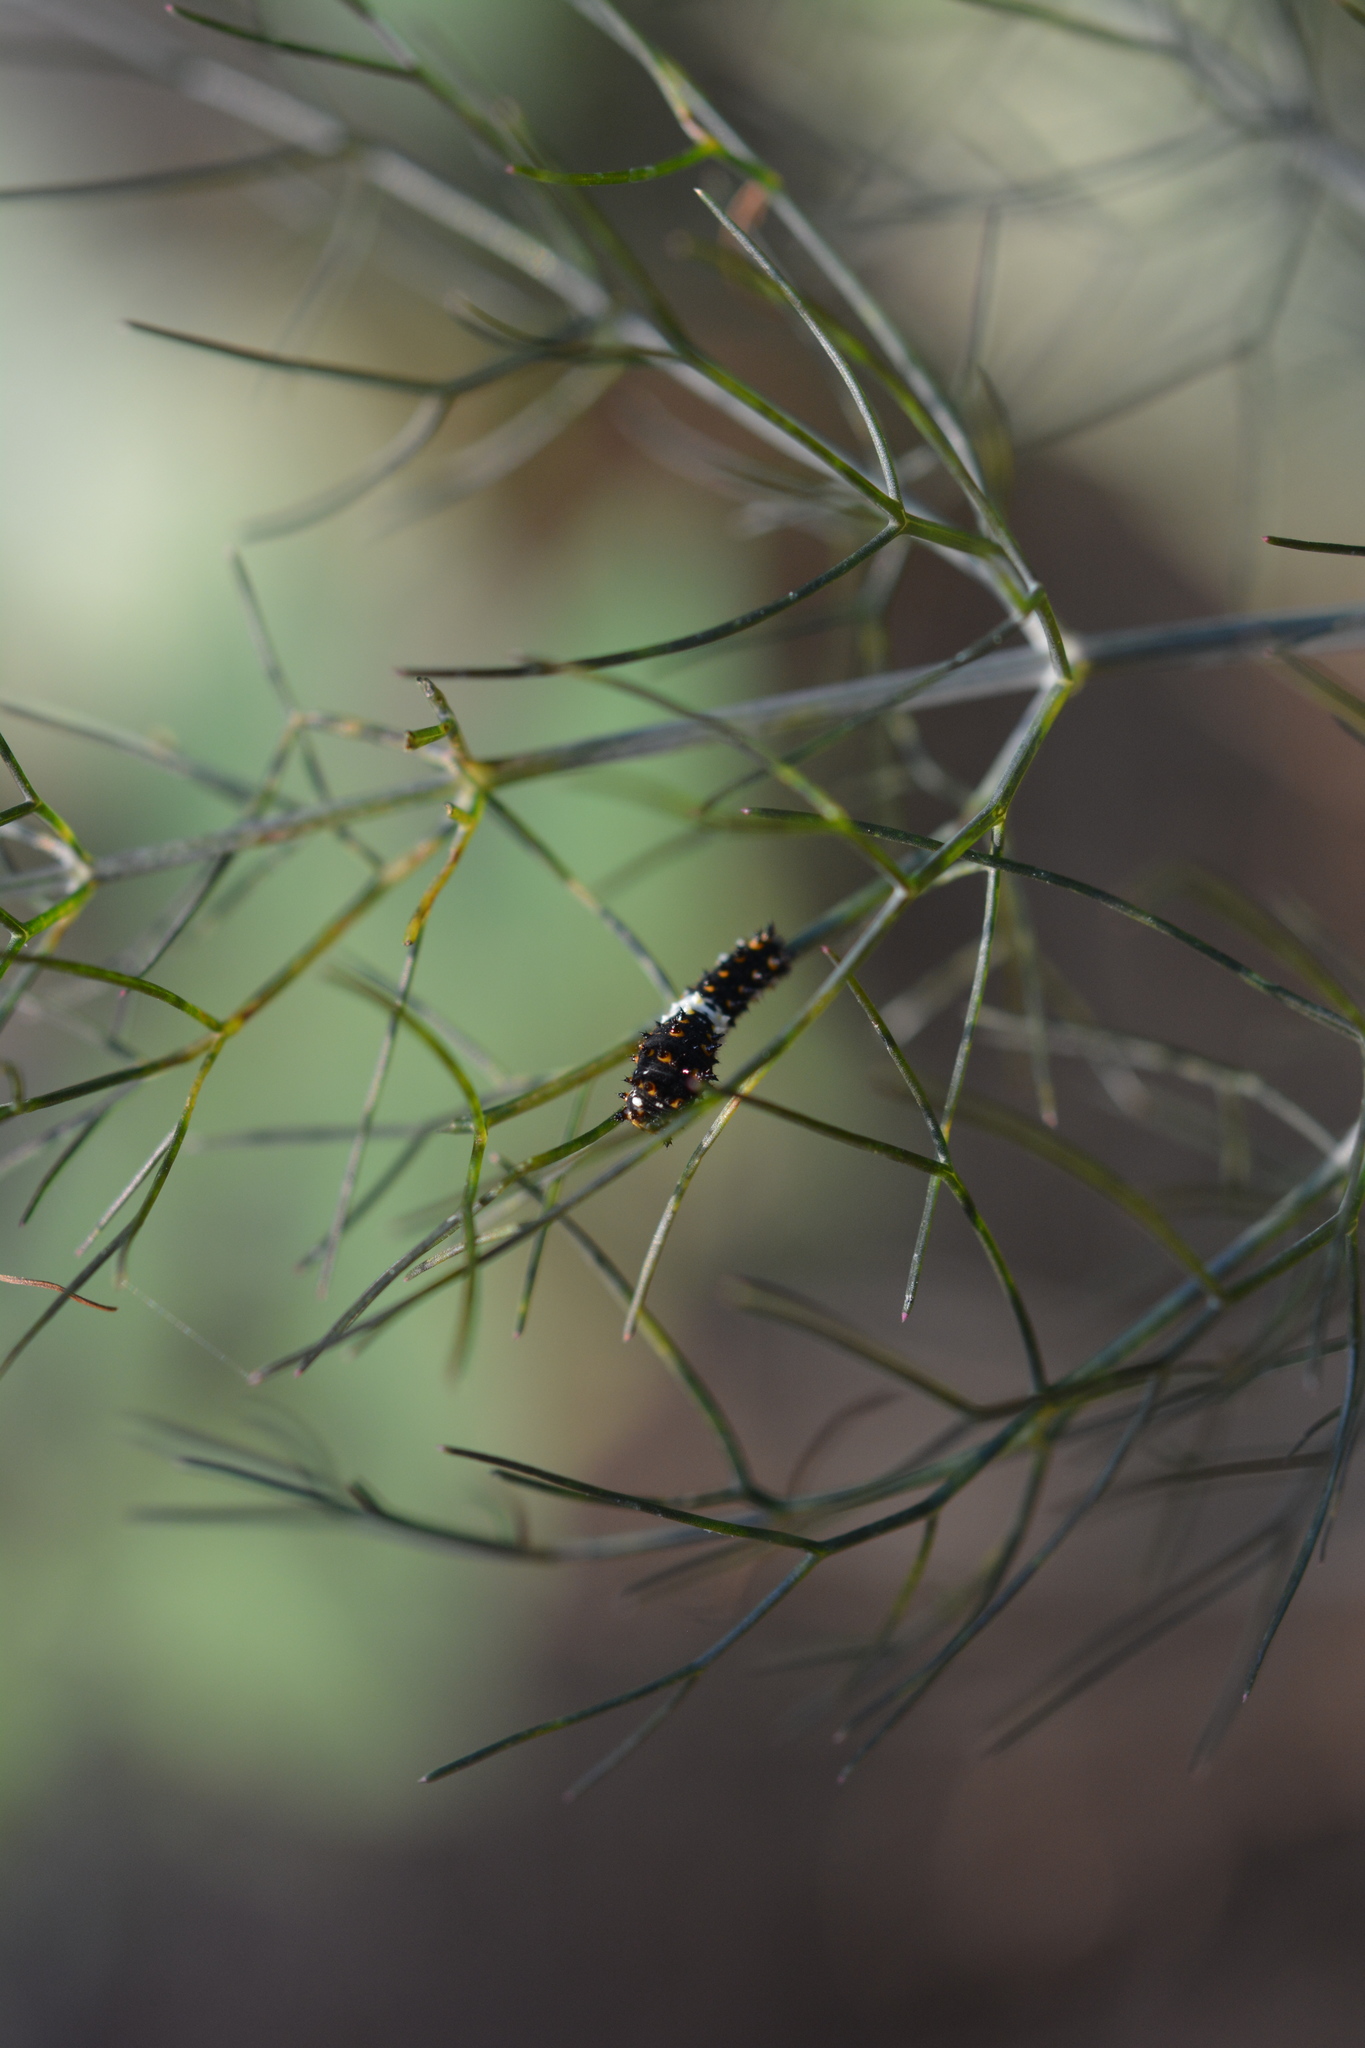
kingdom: Animalia
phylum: Arthropoda
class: Insecta
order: Lepidoptera
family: Papilionidae
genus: Papilio
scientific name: Papilio polyxenes
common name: Black swallowtail
